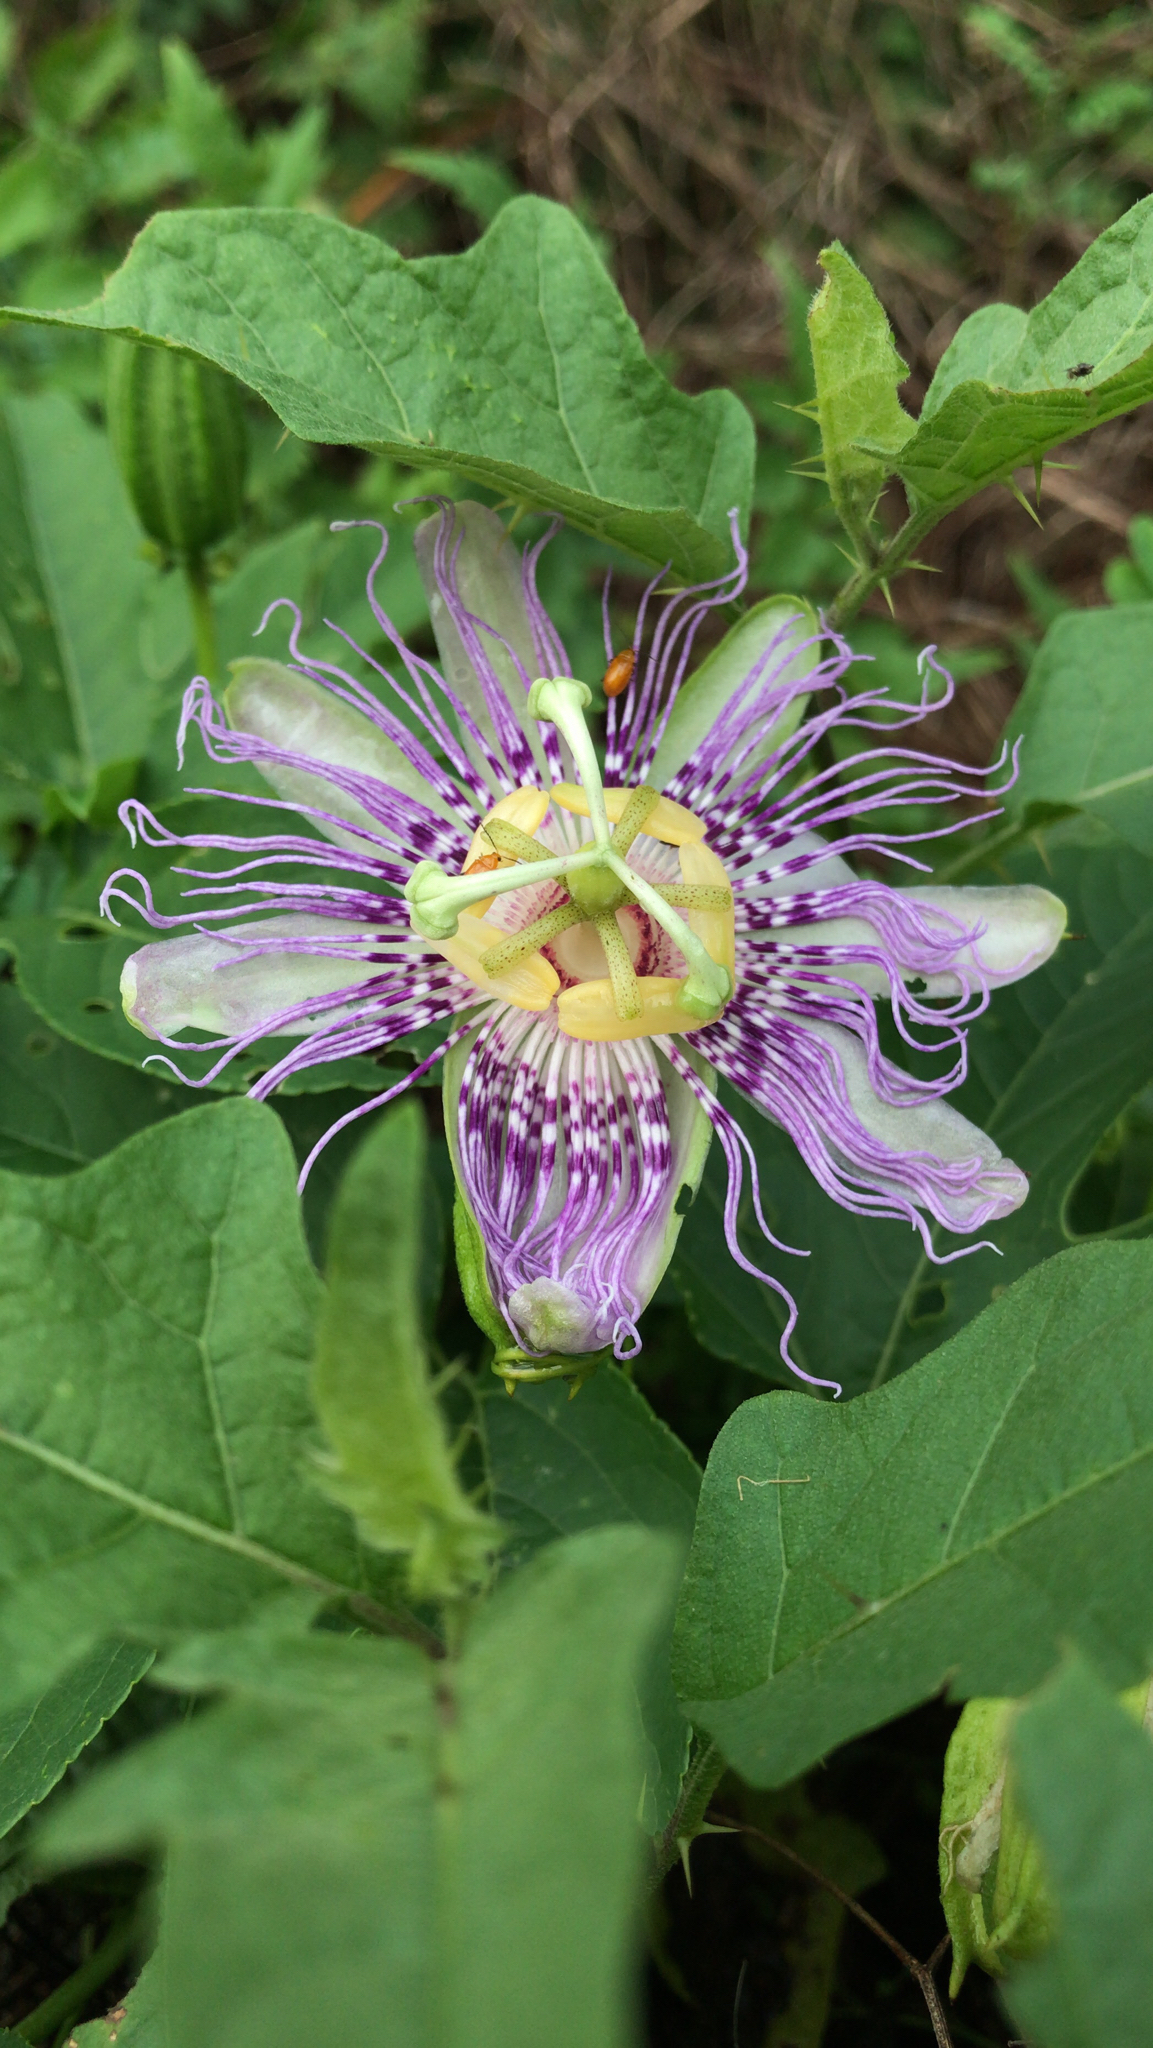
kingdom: Plantae
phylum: Tracheophyta
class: Magnoliopsida
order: Malpighiales
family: Passifloraceae
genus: Passiflora
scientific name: Passiflora incarnata
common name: Apricot-vine
